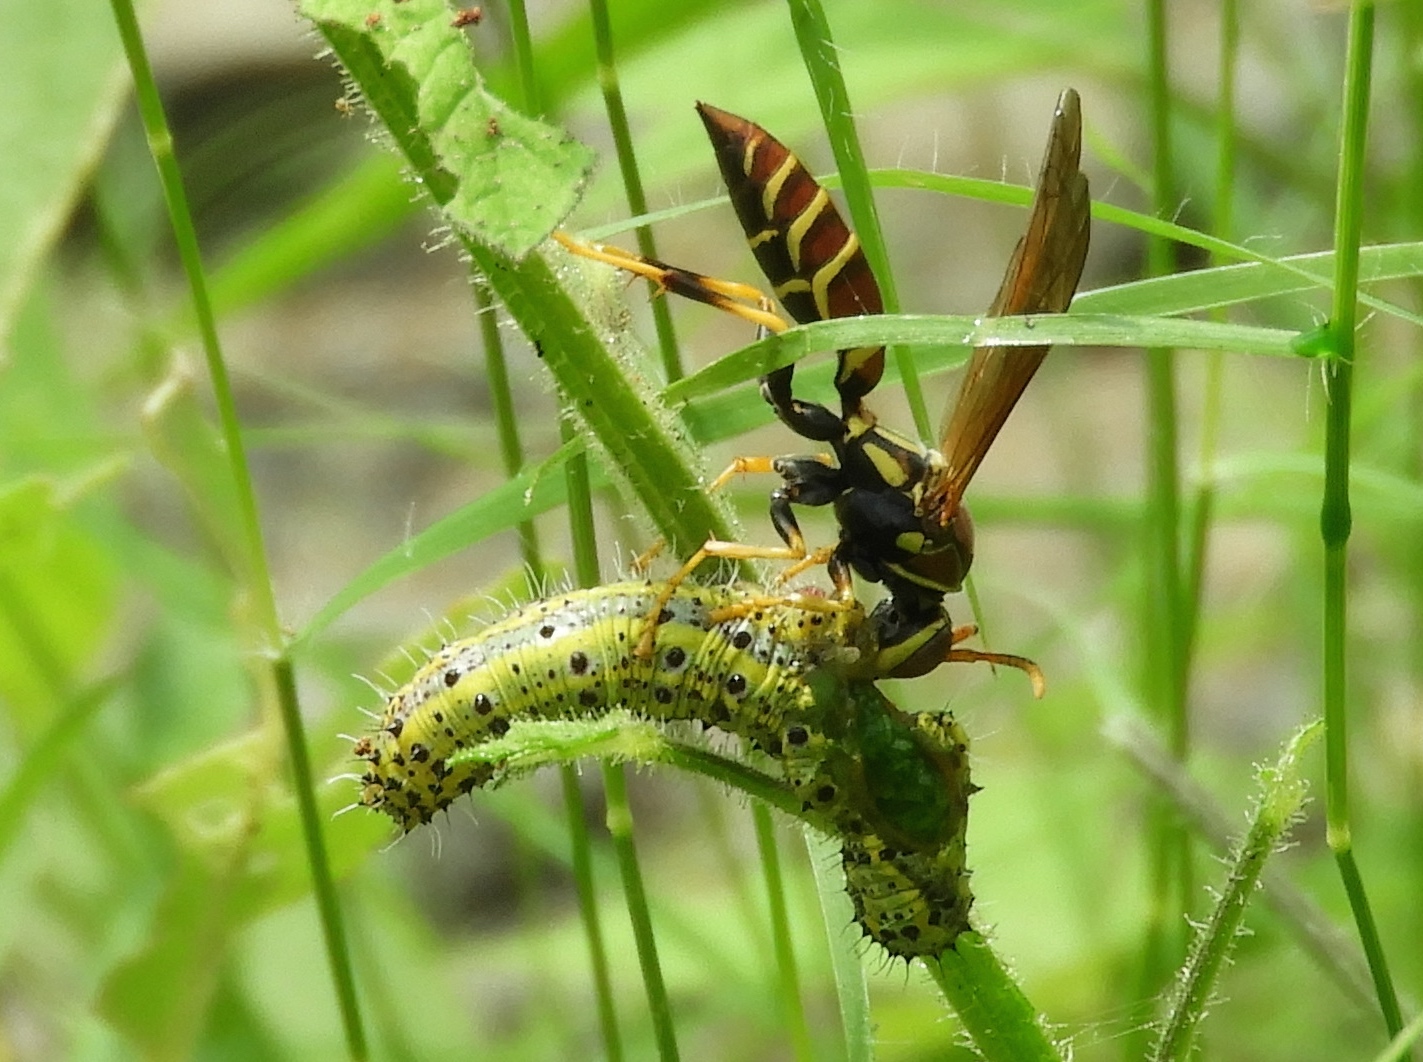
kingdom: Animalia
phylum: Arthropoda
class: Insecta
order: Hymenoptera
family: Eumenidae
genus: Polistes
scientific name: Polistes instabilis
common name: Unstable paper wasp
